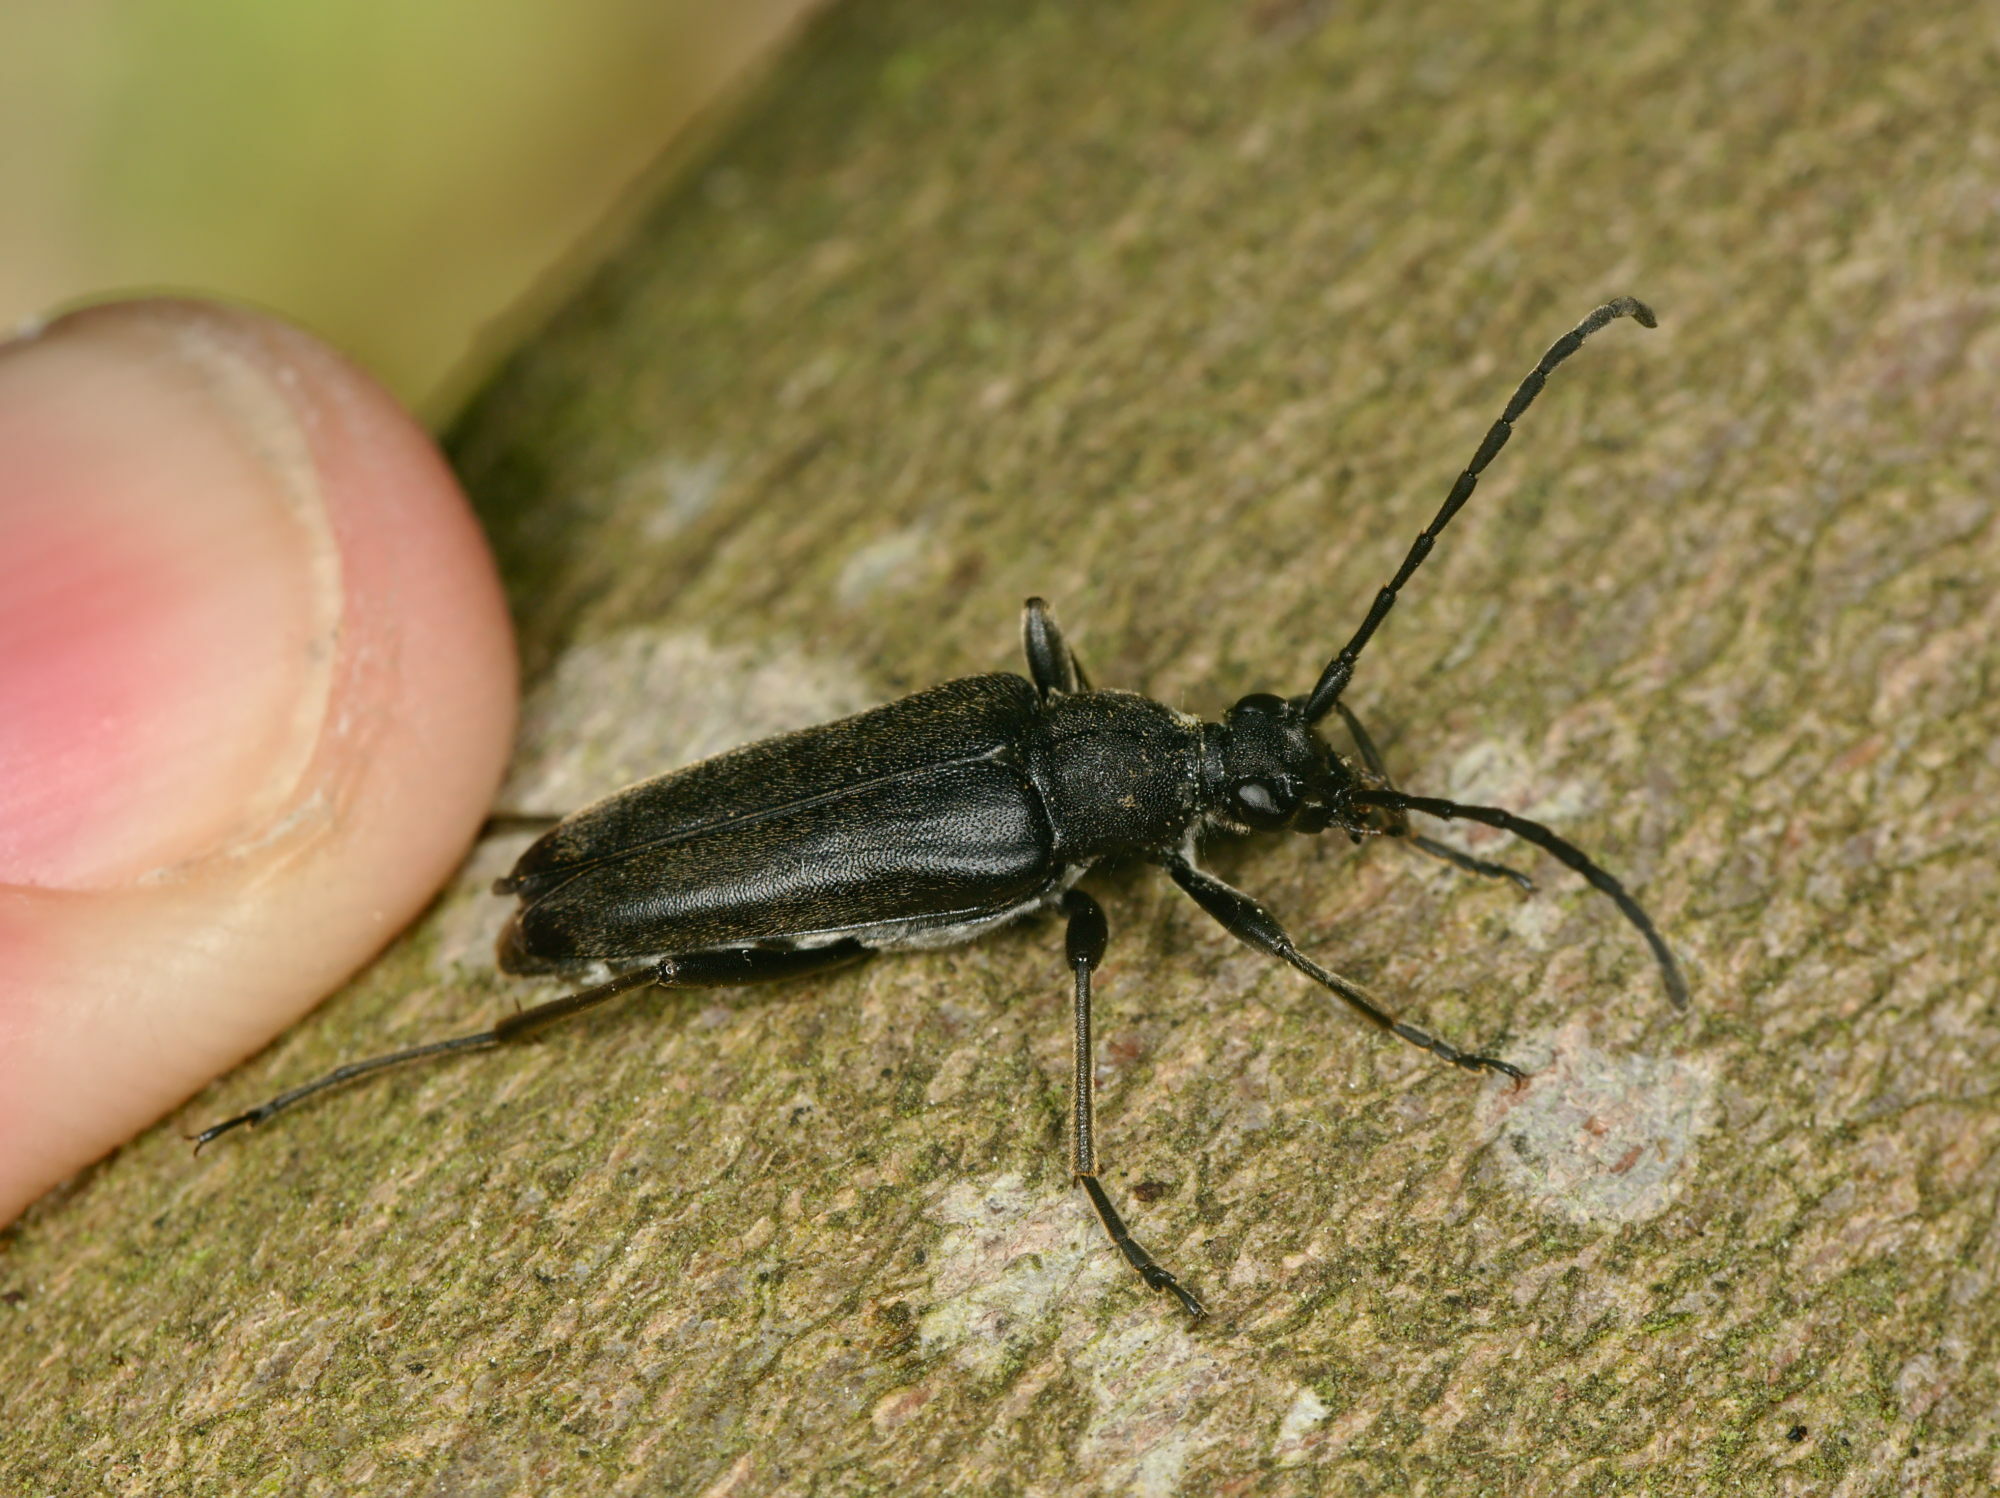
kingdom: Animalia
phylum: Arthropoda
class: Insecta
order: Coleoptera
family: Cerambycidae
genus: Leptura
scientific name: Leptura aethiops
